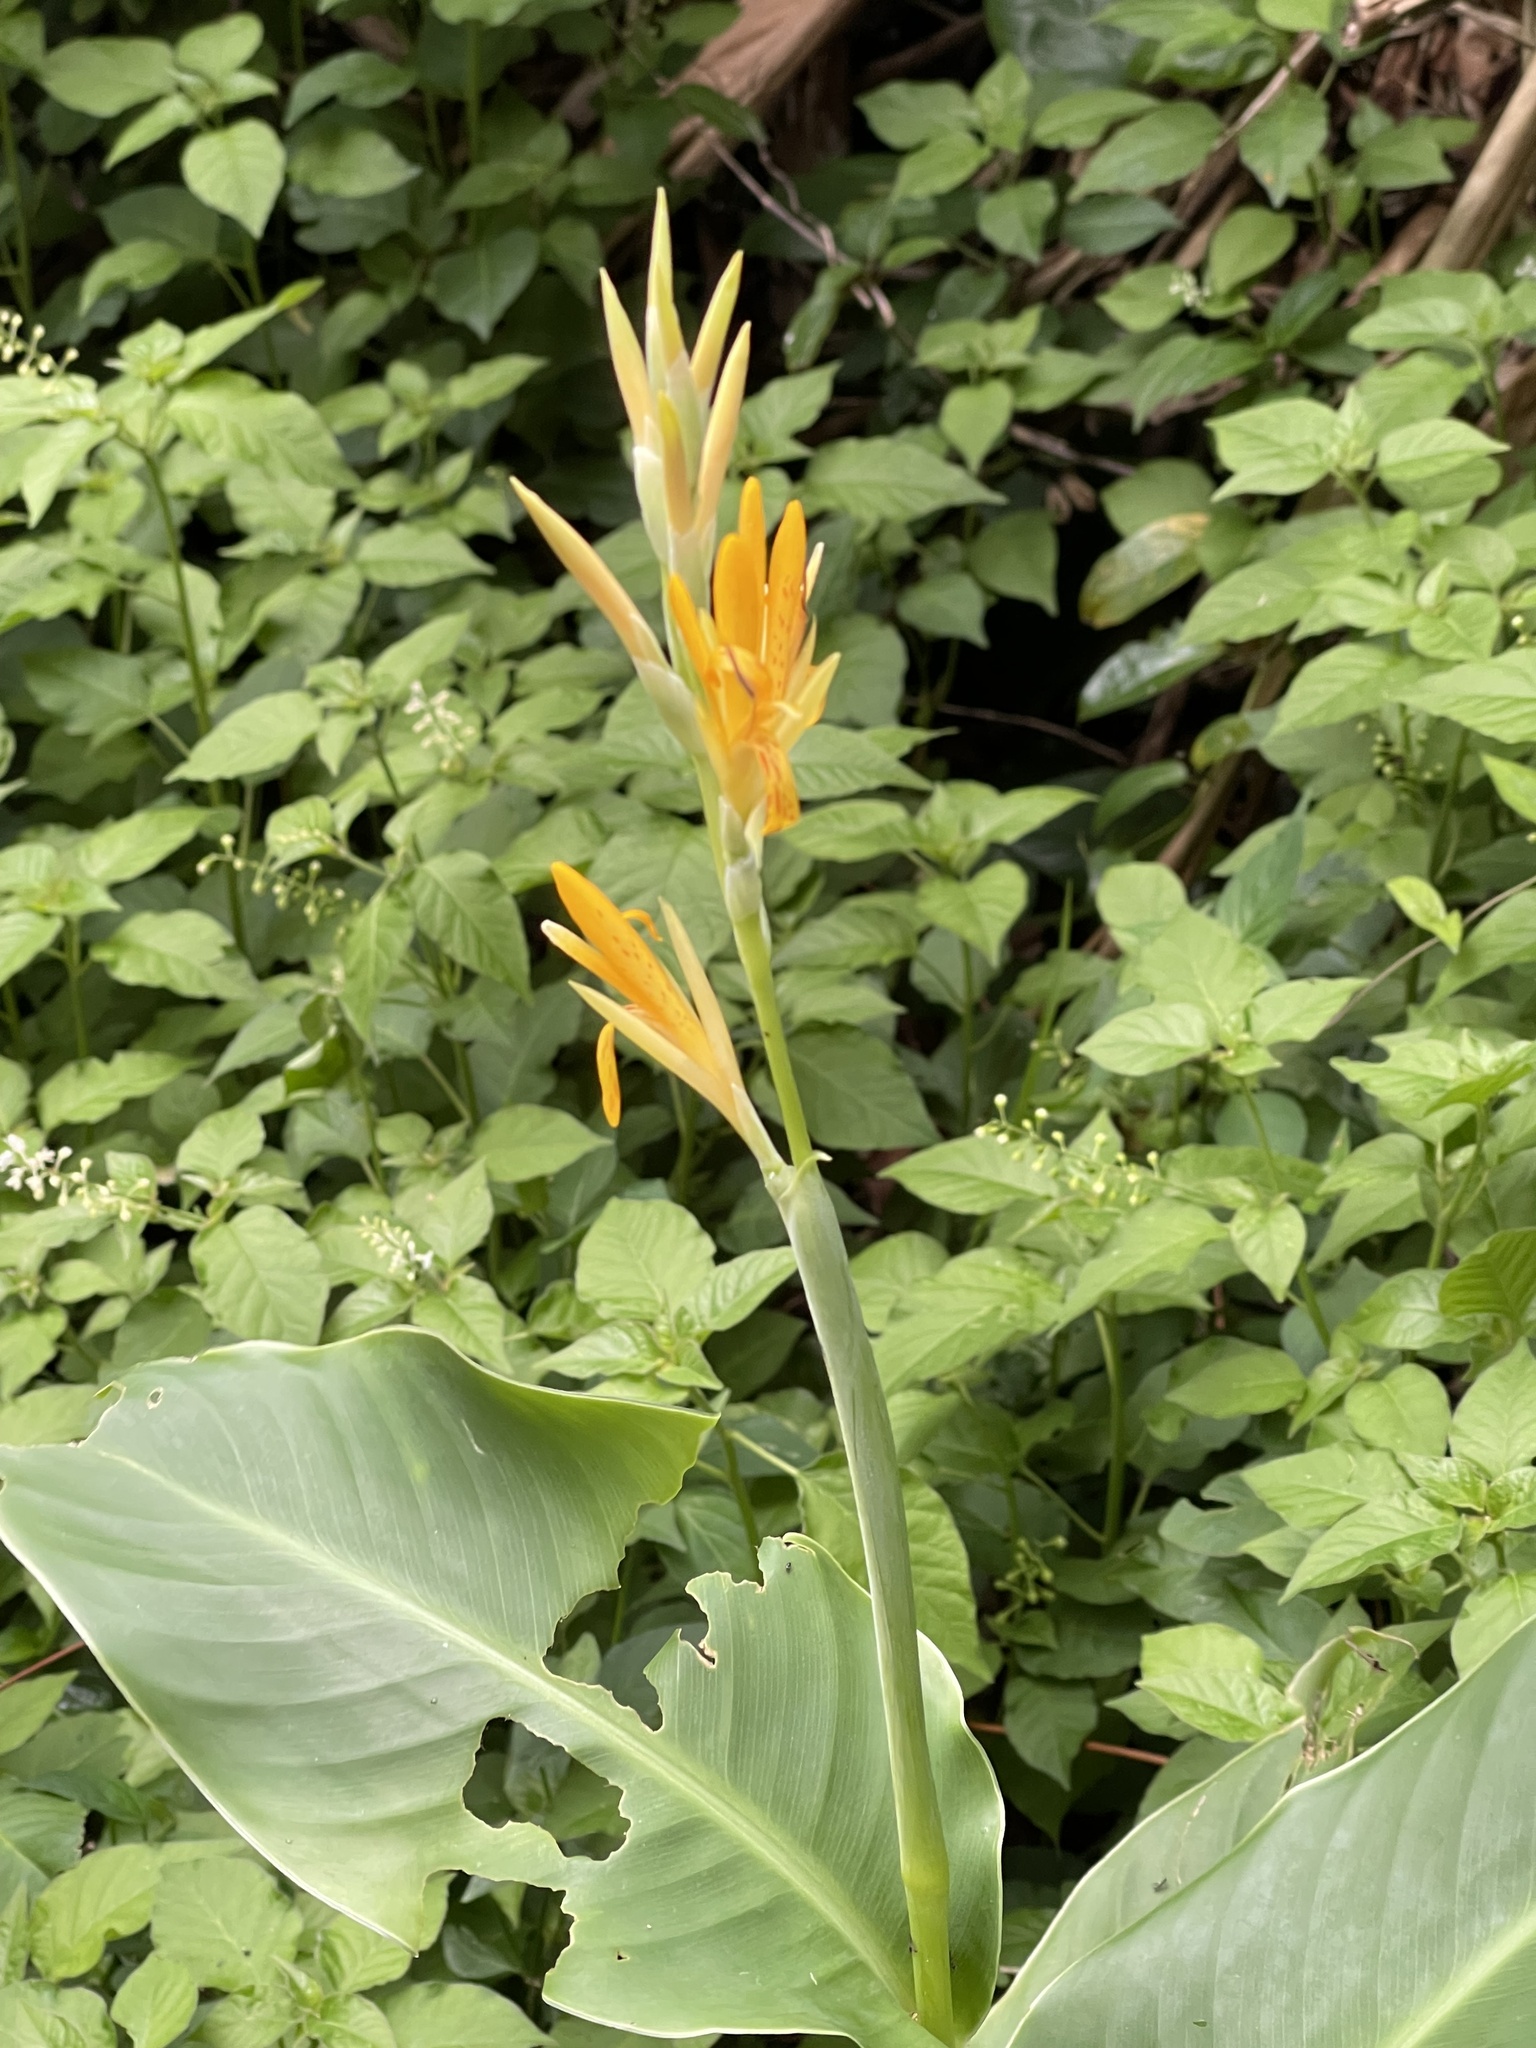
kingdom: Plantae
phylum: Tracheophyta
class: Liliopsida
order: Zingiberales
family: Cannaceae
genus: Canna
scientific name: Canna indica
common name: Indian shot
